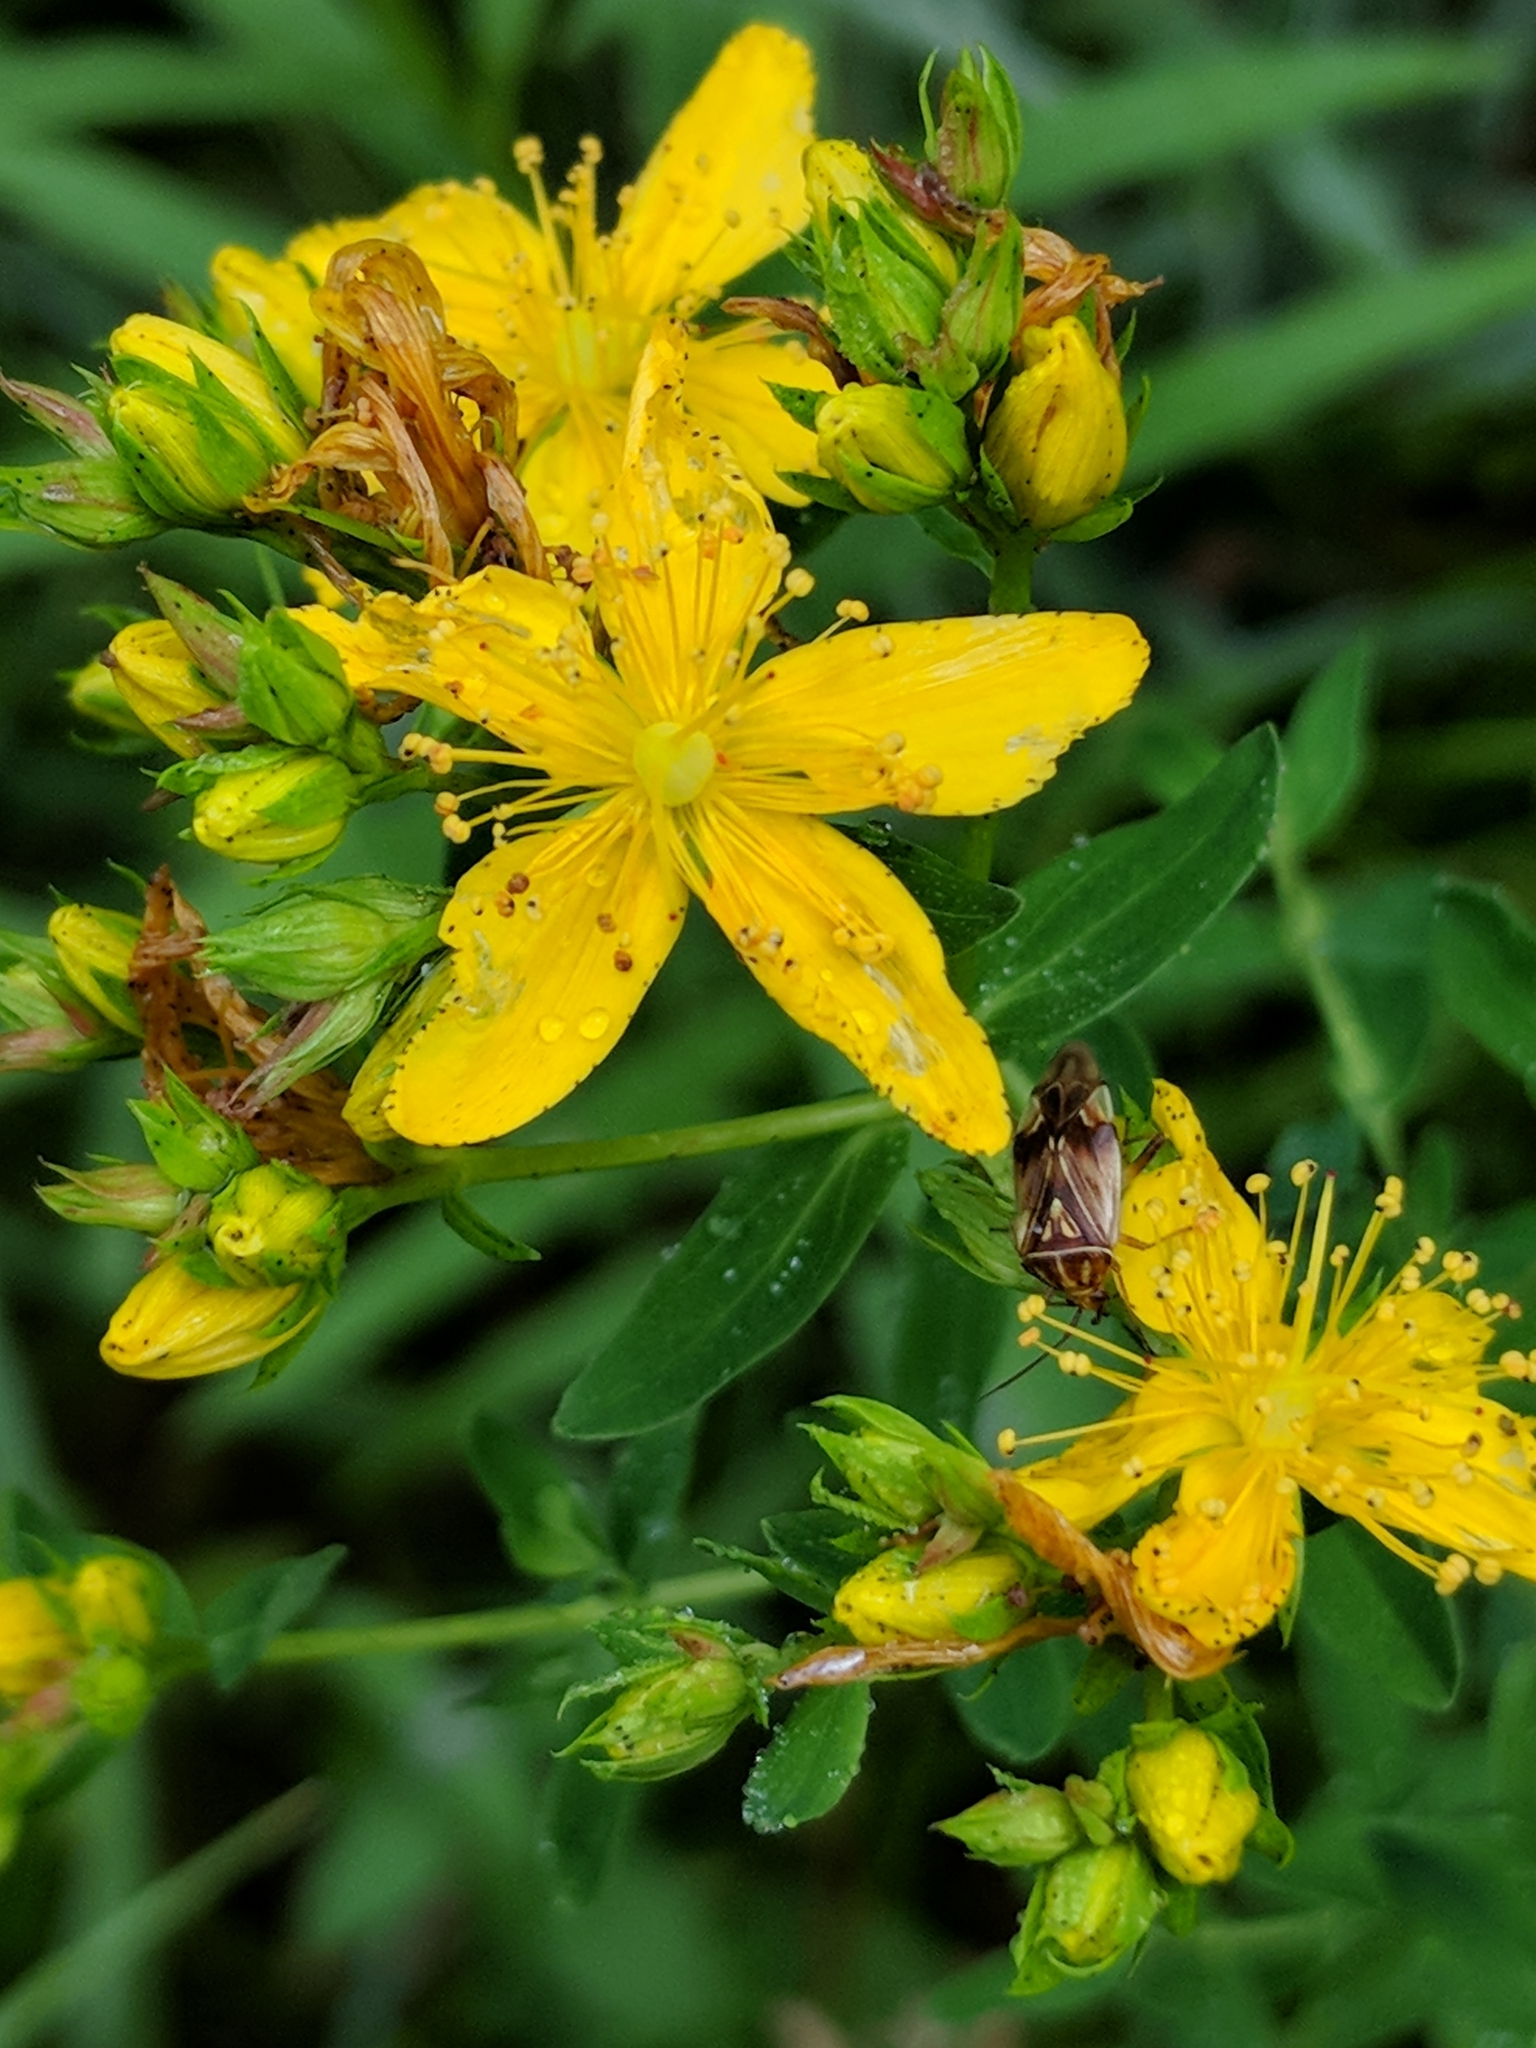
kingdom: Plantae
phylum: Tracheophyta
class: Magnoliopsida
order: Malpighiales
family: Hypericaceae
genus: Hypericum
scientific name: Hypericum perforatum
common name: Common st. johnswort
